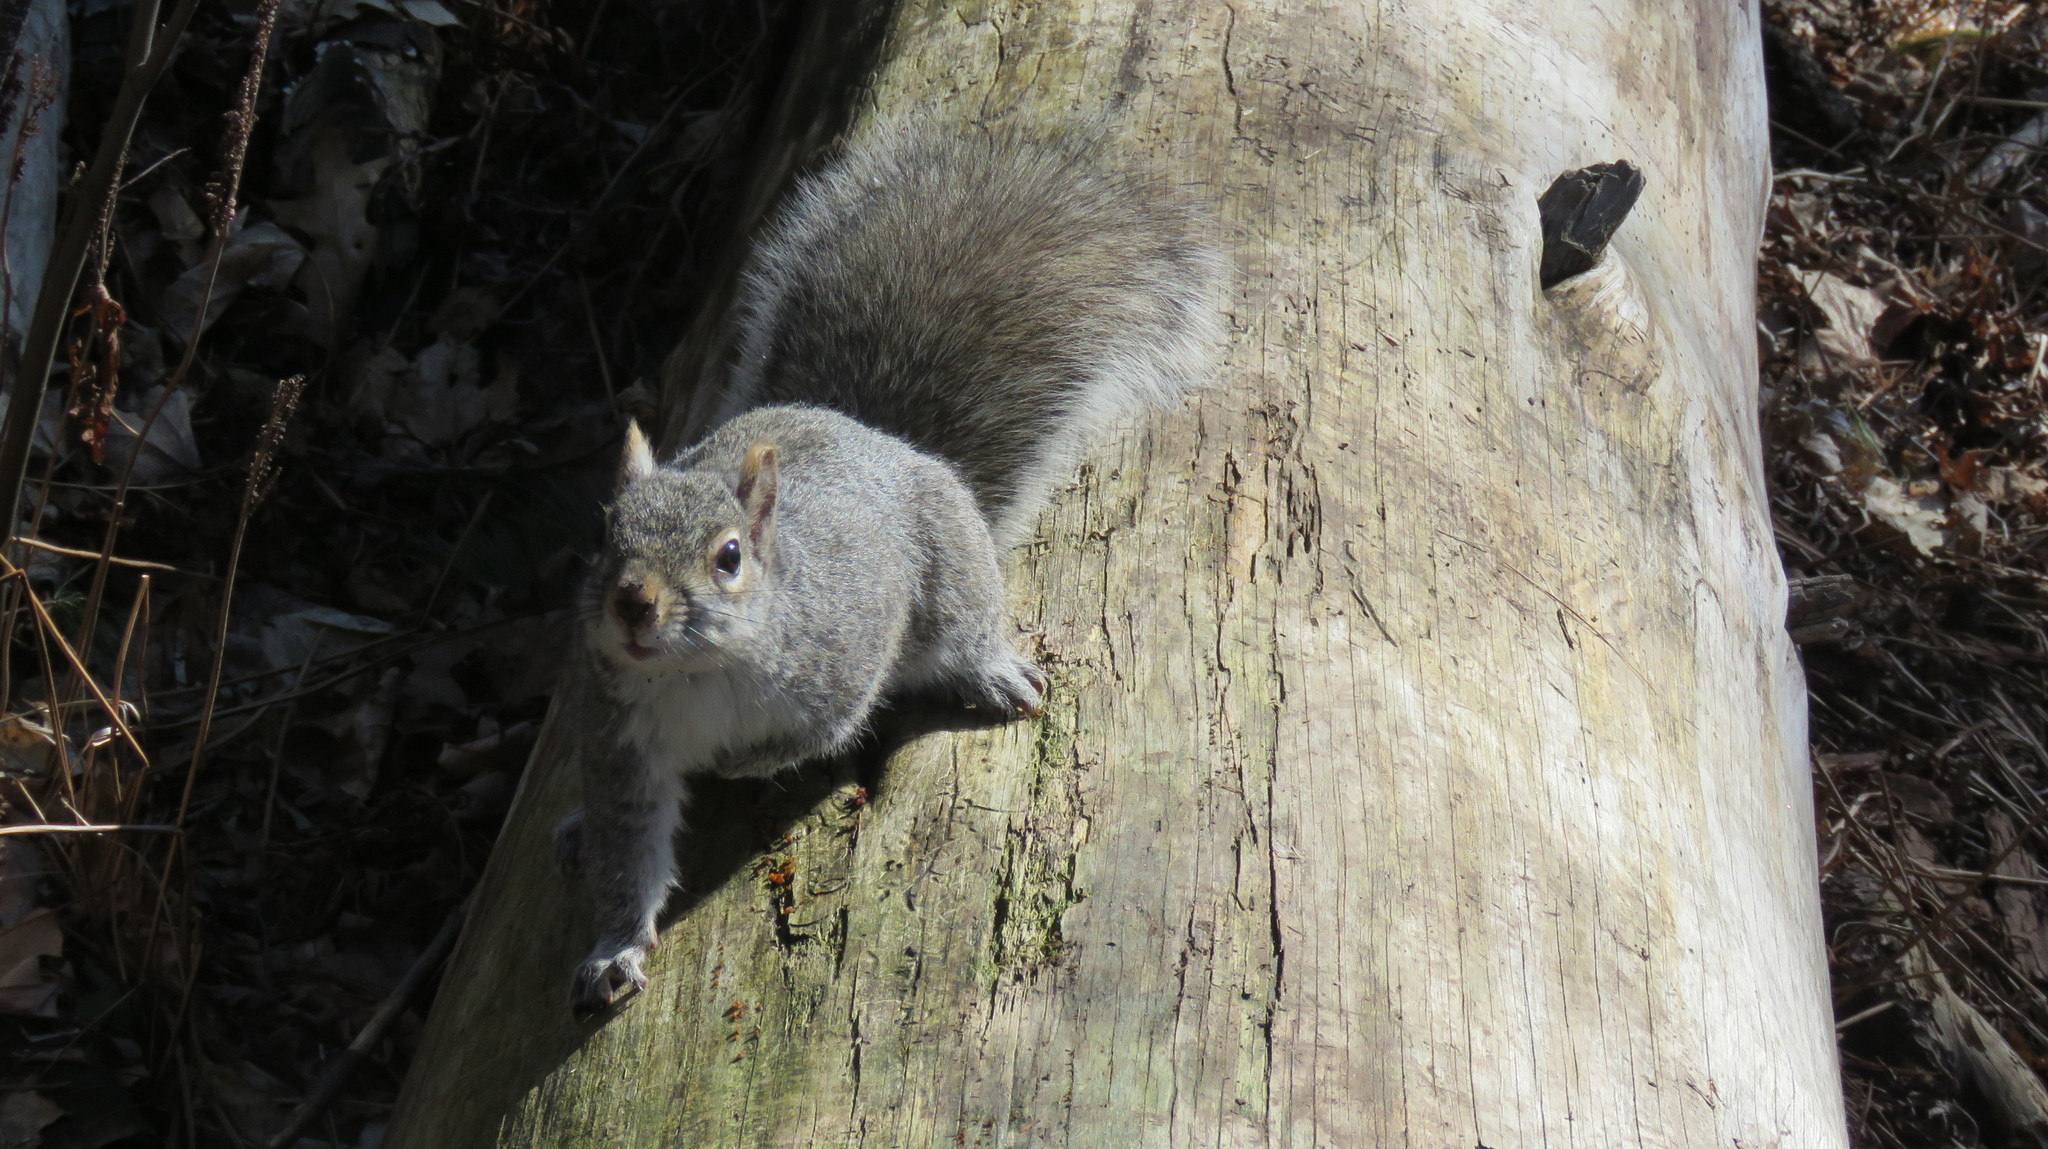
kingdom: Animalia
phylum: Chordata
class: Mammalia
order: Rodentia
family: Sciuridae
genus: Sciurus
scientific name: Sciurus carolinensis
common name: Eastern gray squirrel
